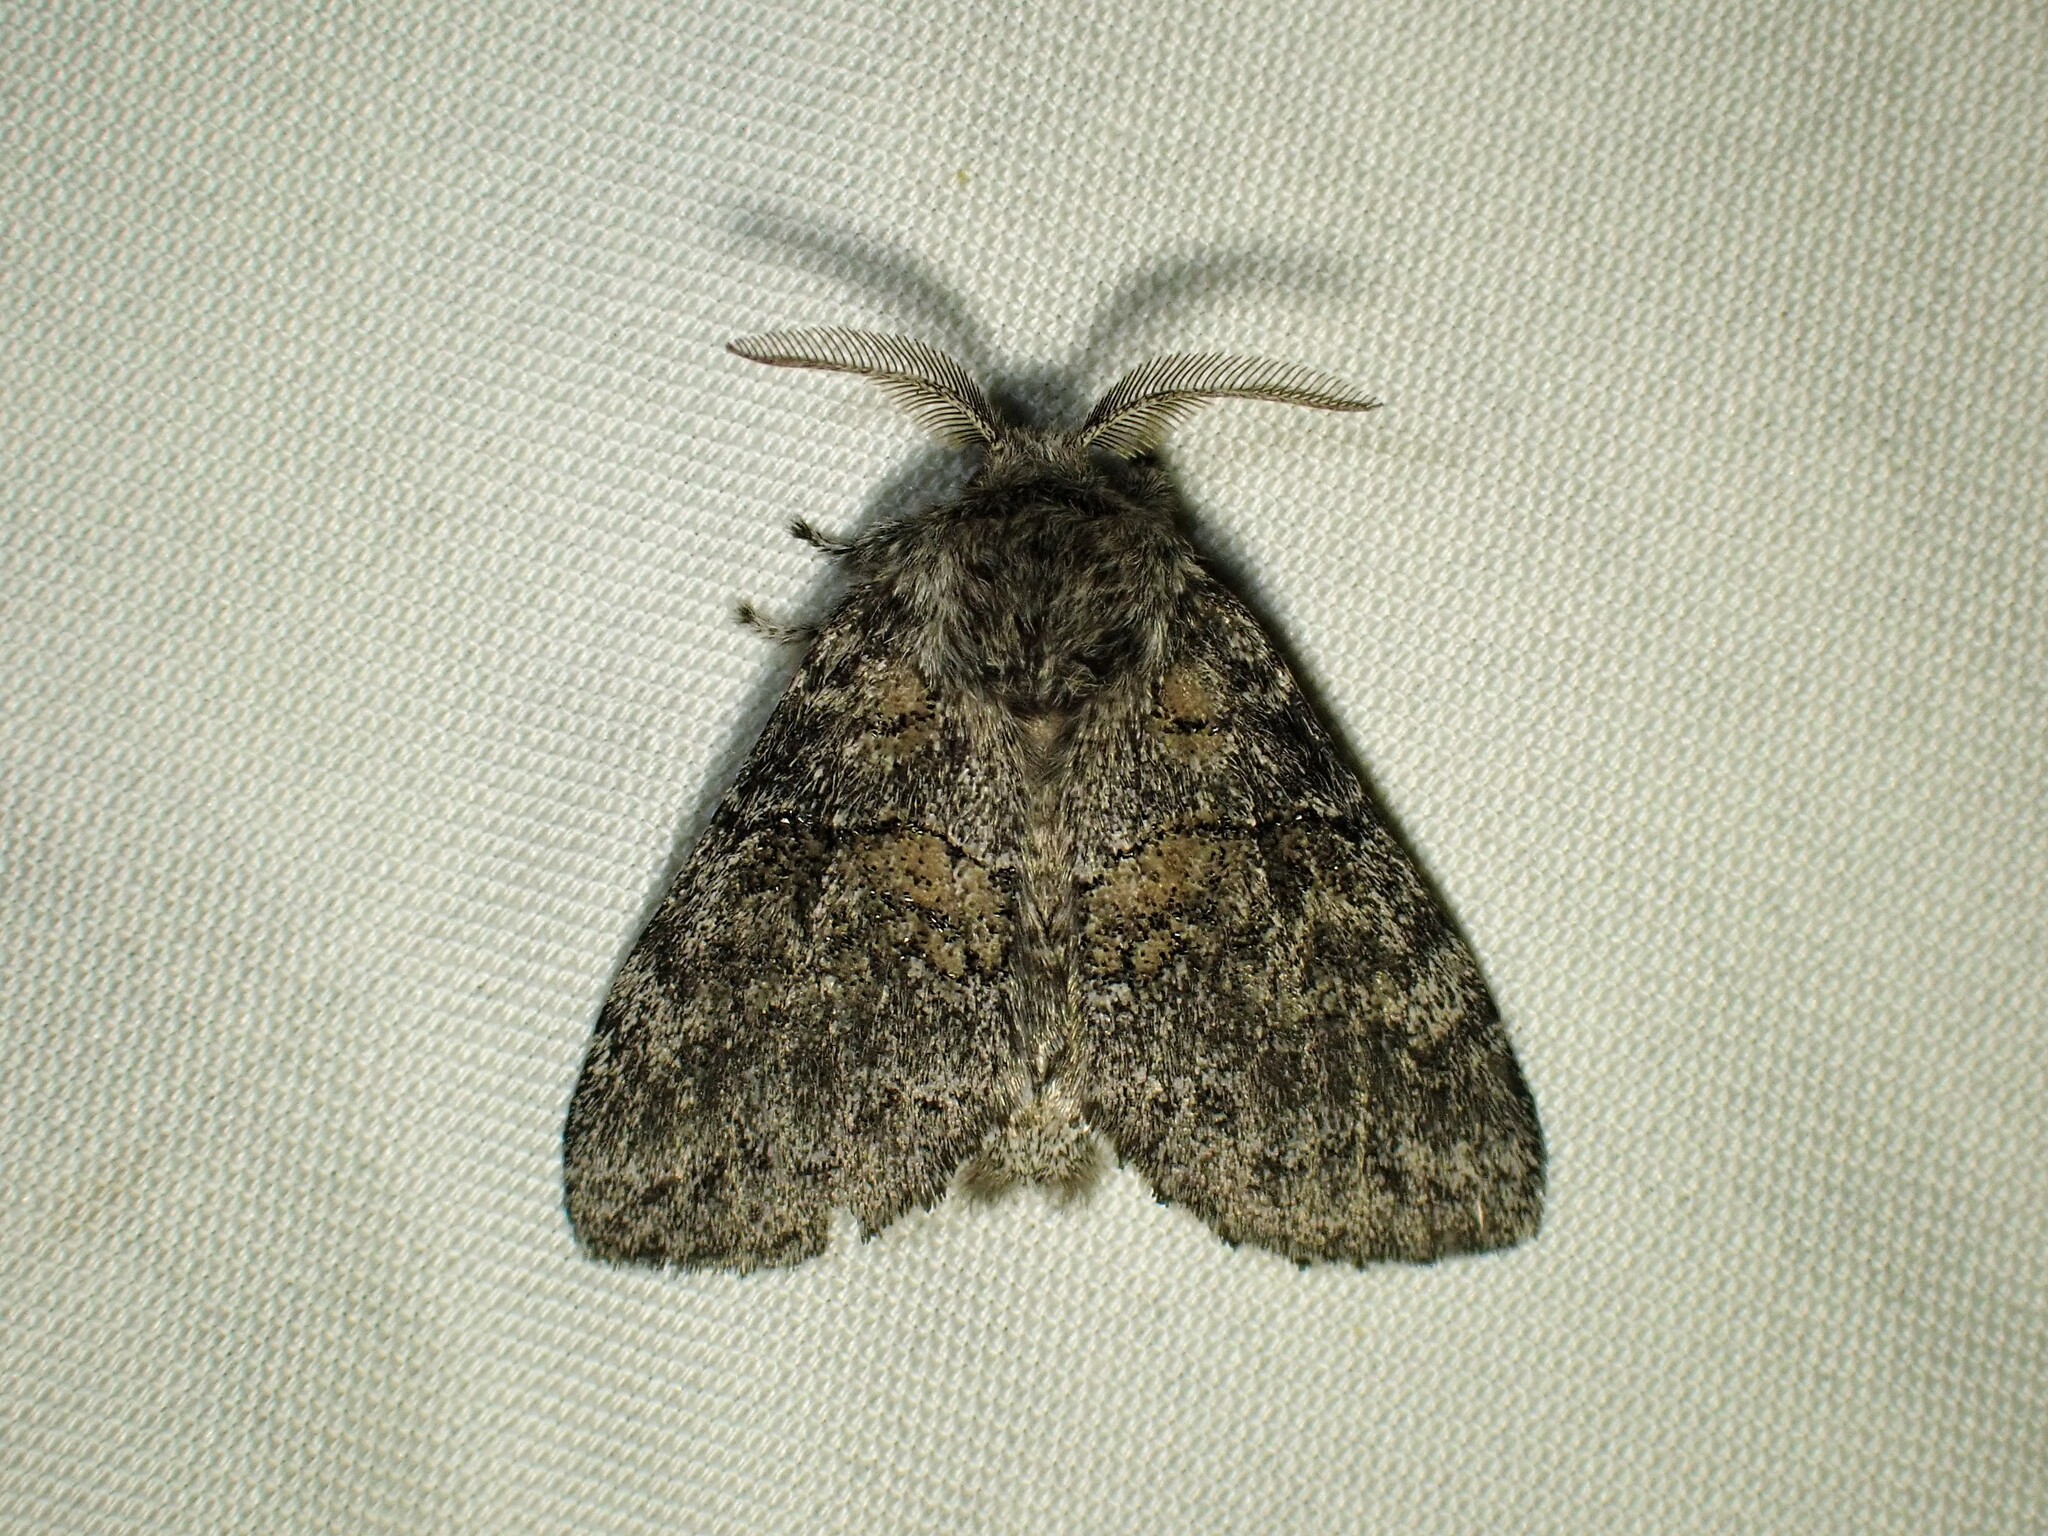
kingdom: Animalia
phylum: Arthropoda
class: Insecta
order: Lepidoptera
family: Notodontidae
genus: Gluphisia
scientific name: Gluphisia septentrionis
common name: Common gluphisia
